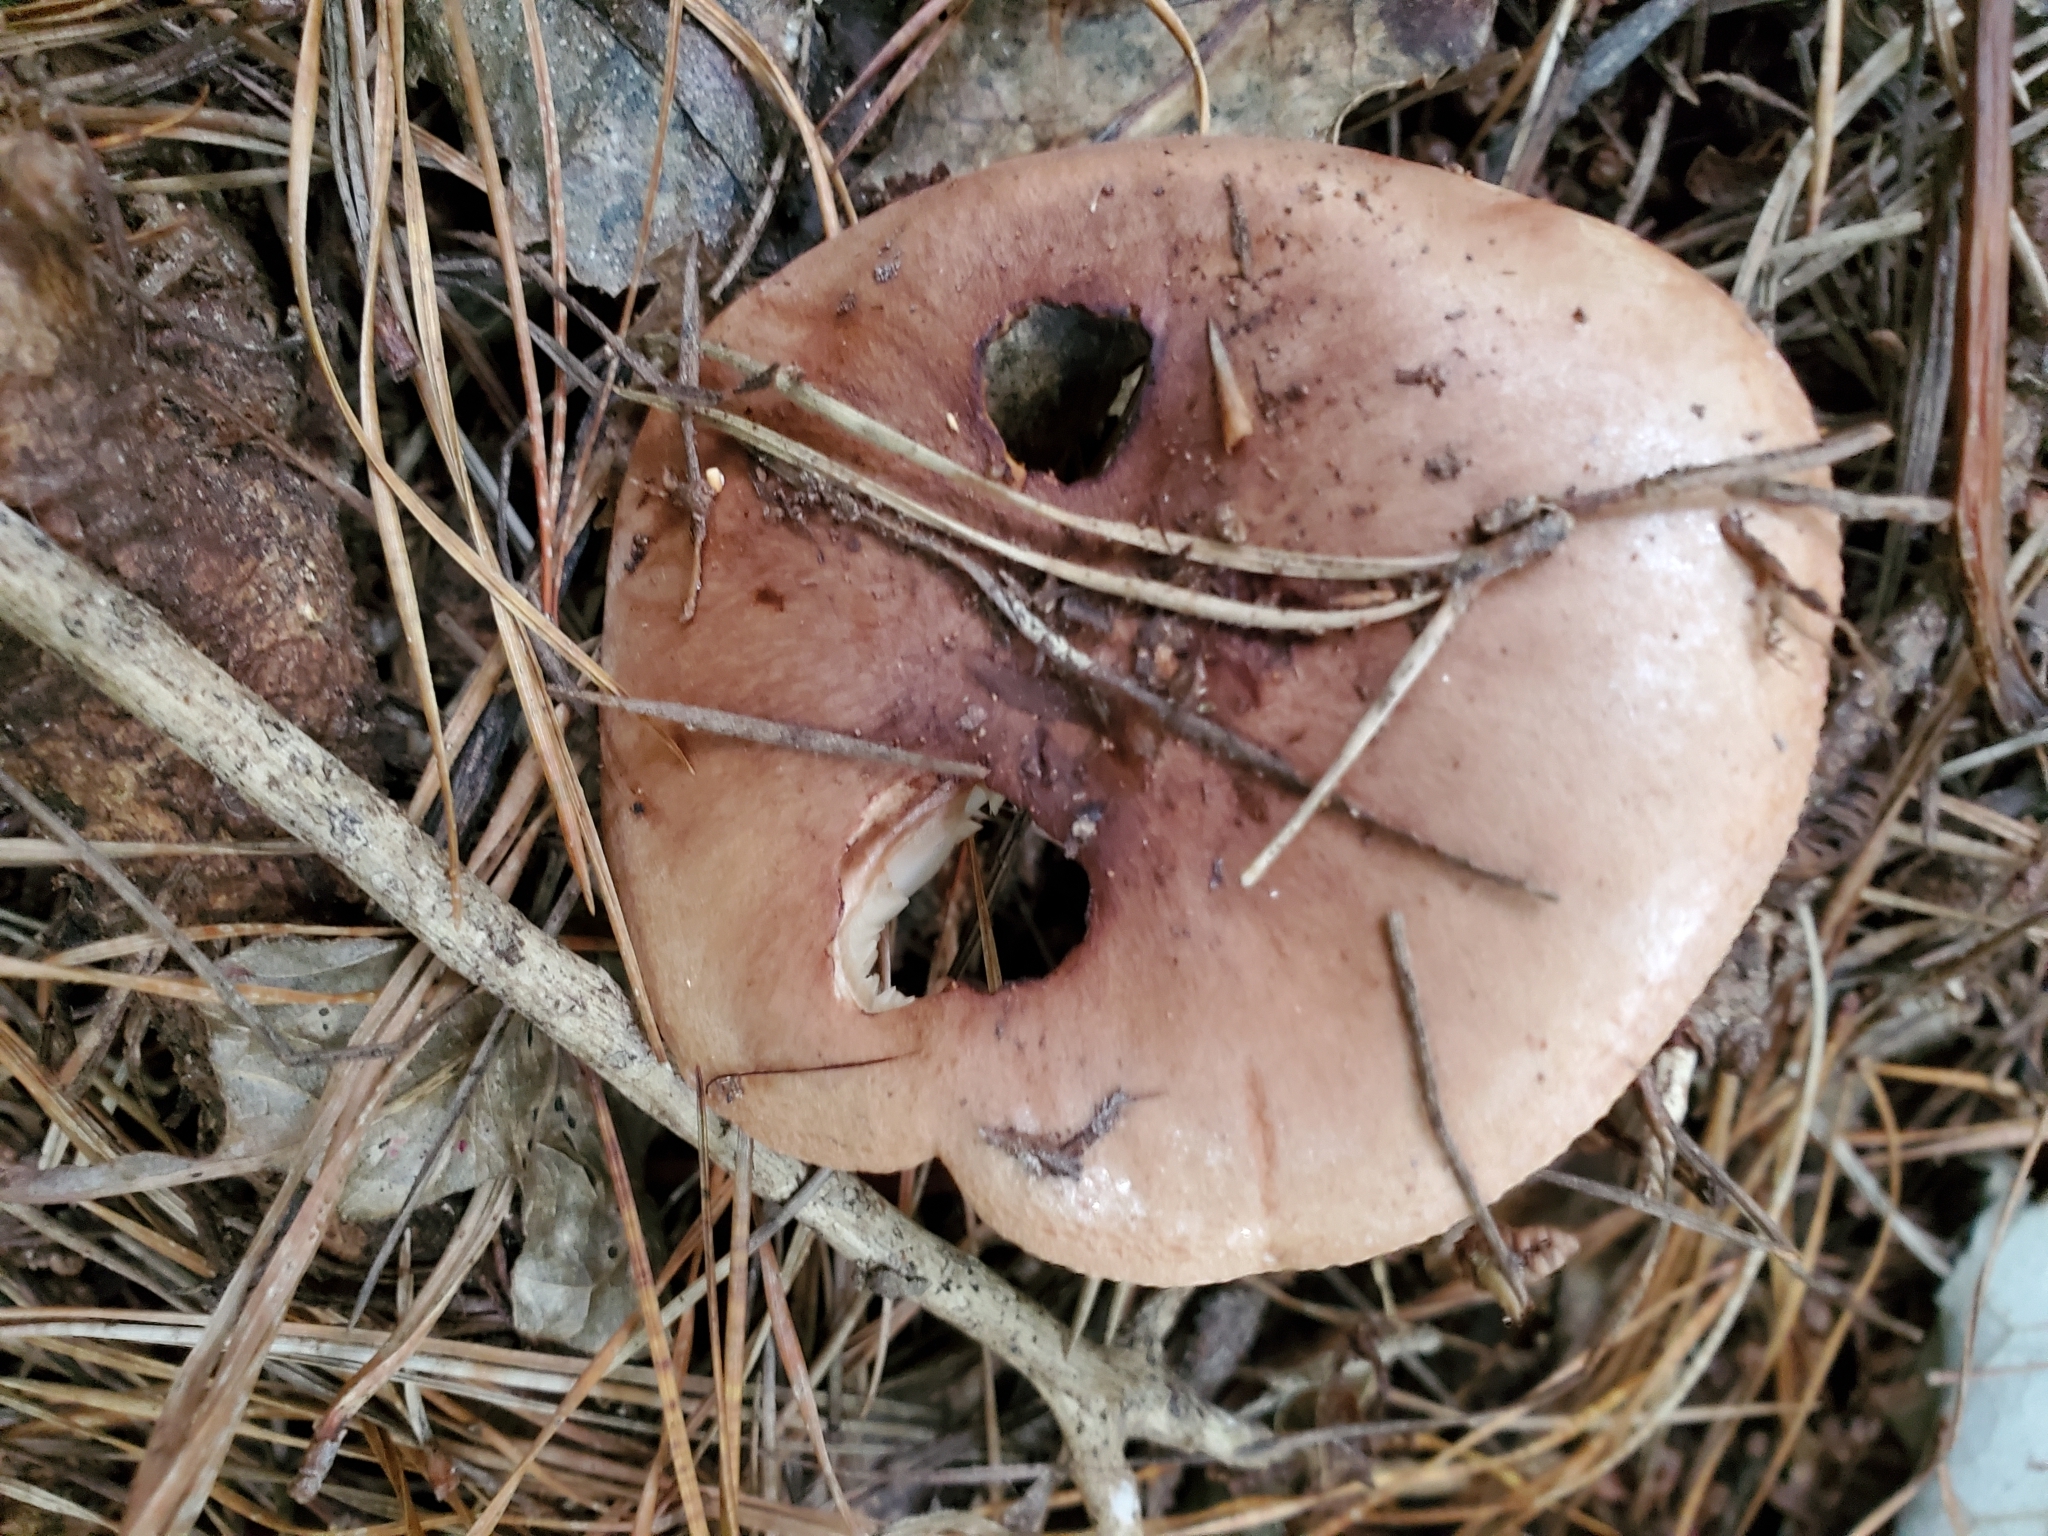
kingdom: Fungi
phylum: Basidiomycota
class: Agaricomycetes
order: Agaricales
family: Tricholomataceae
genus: Tricholoma
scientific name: Tricholoma batschii
